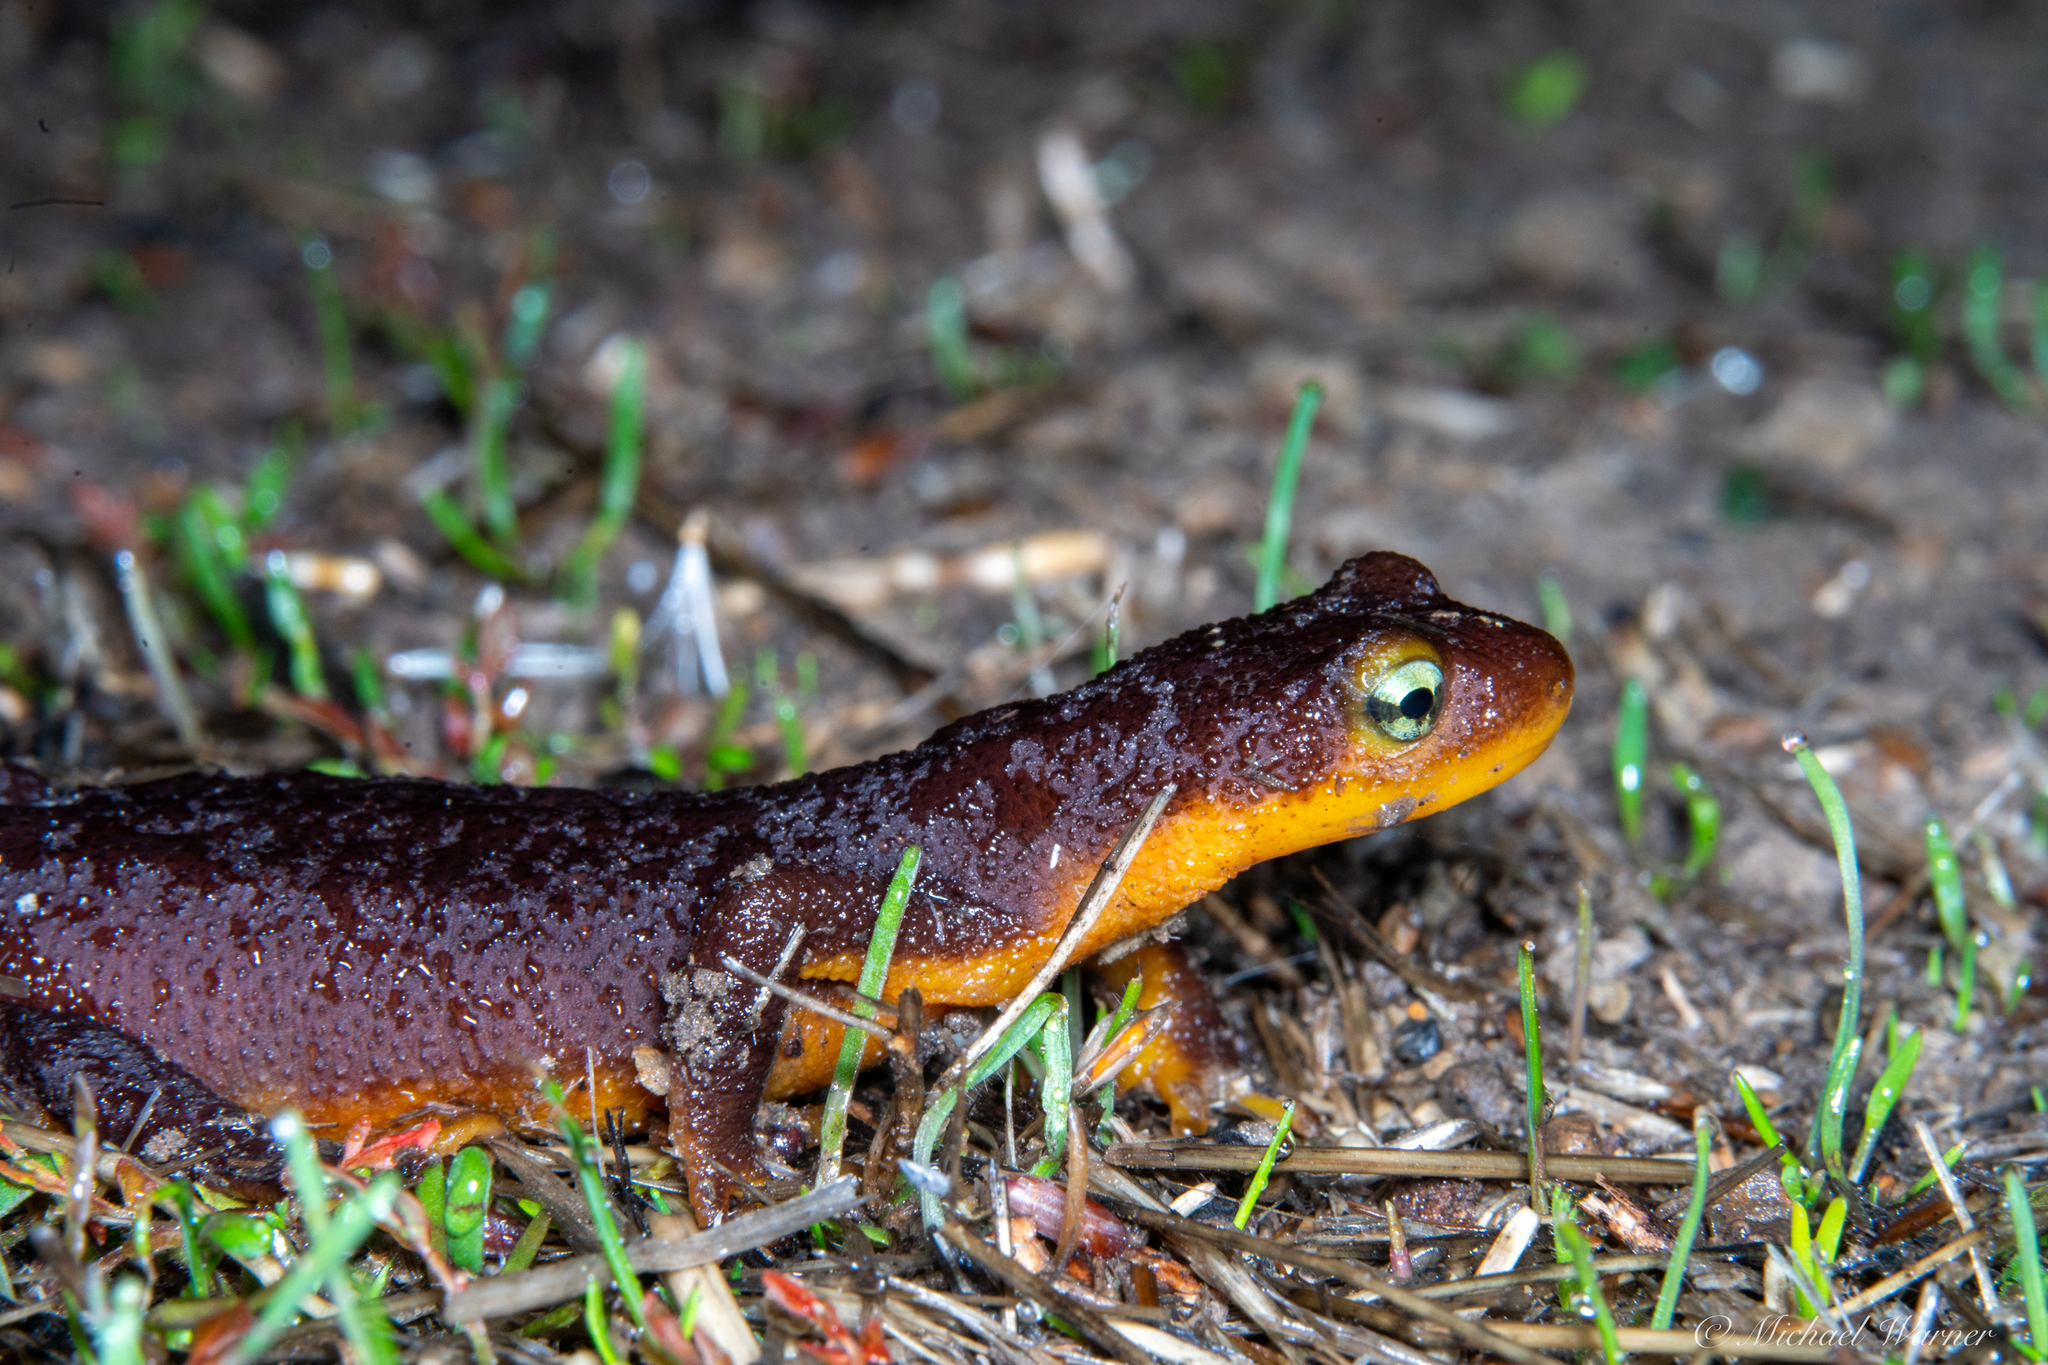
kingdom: Animalia
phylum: Chordata
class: Amphibia
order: Caudata
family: Salamandridae
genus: Taricha
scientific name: Taricha torosa
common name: California newt
